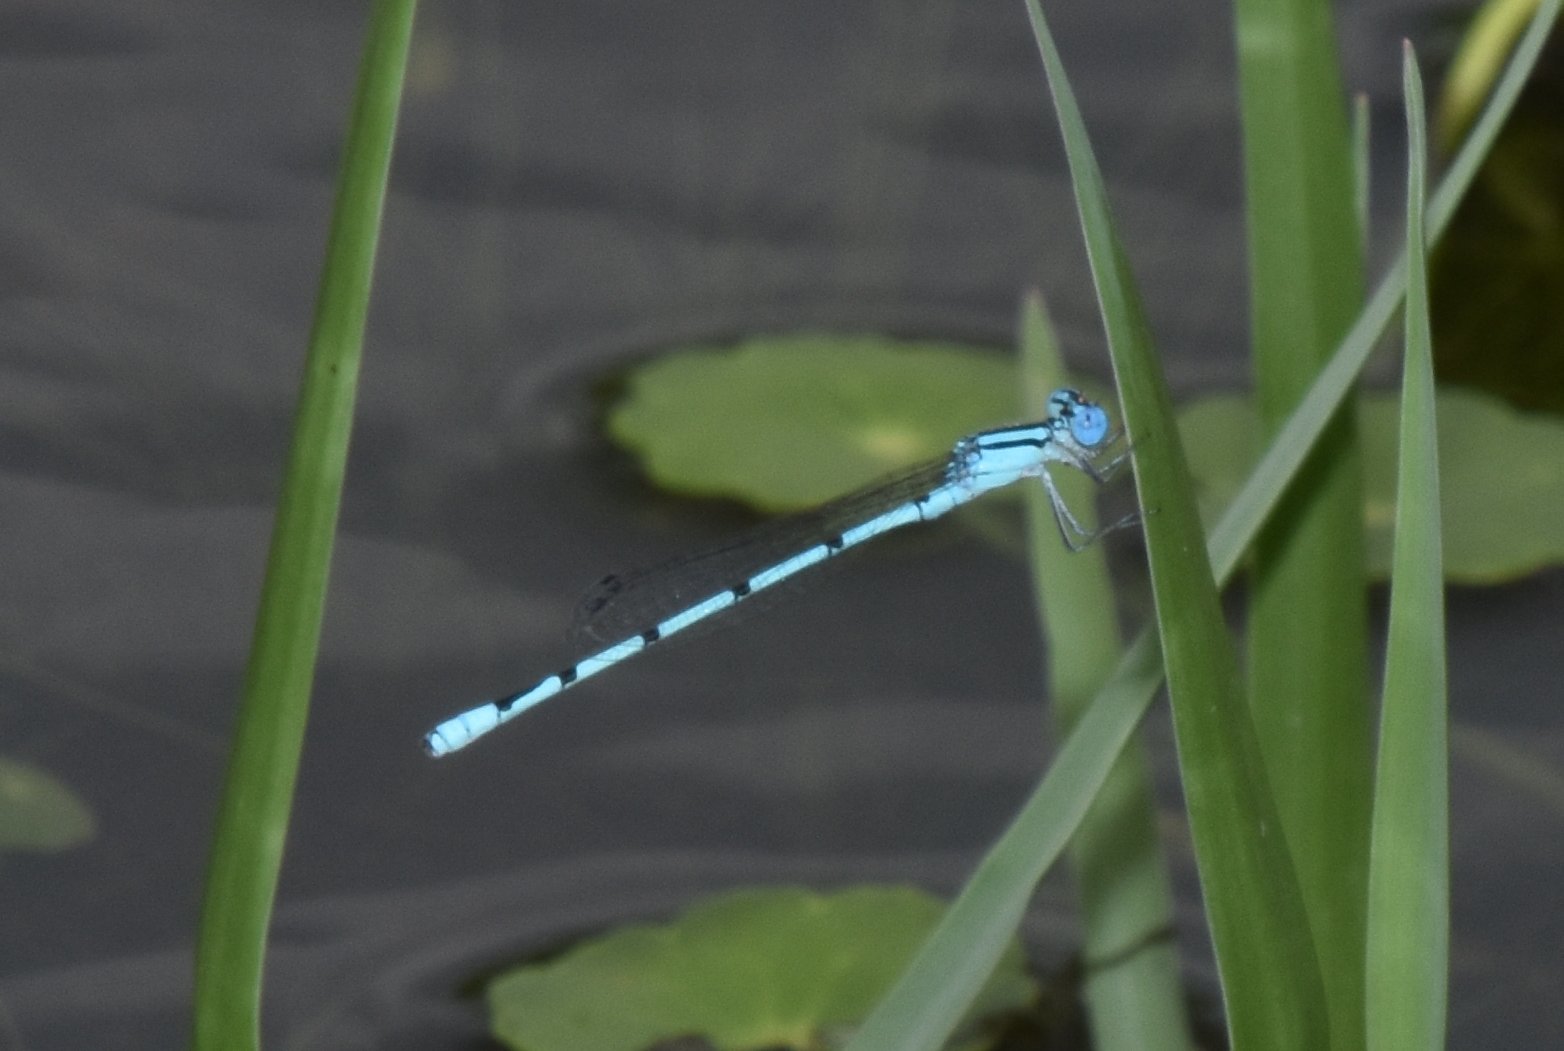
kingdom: Animalia
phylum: Arthropoda
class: Insecta
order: Odonata
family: Coenagrionidae
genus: Enallagma
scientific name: Enallagma doubledayi
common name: Atlantic bluet
